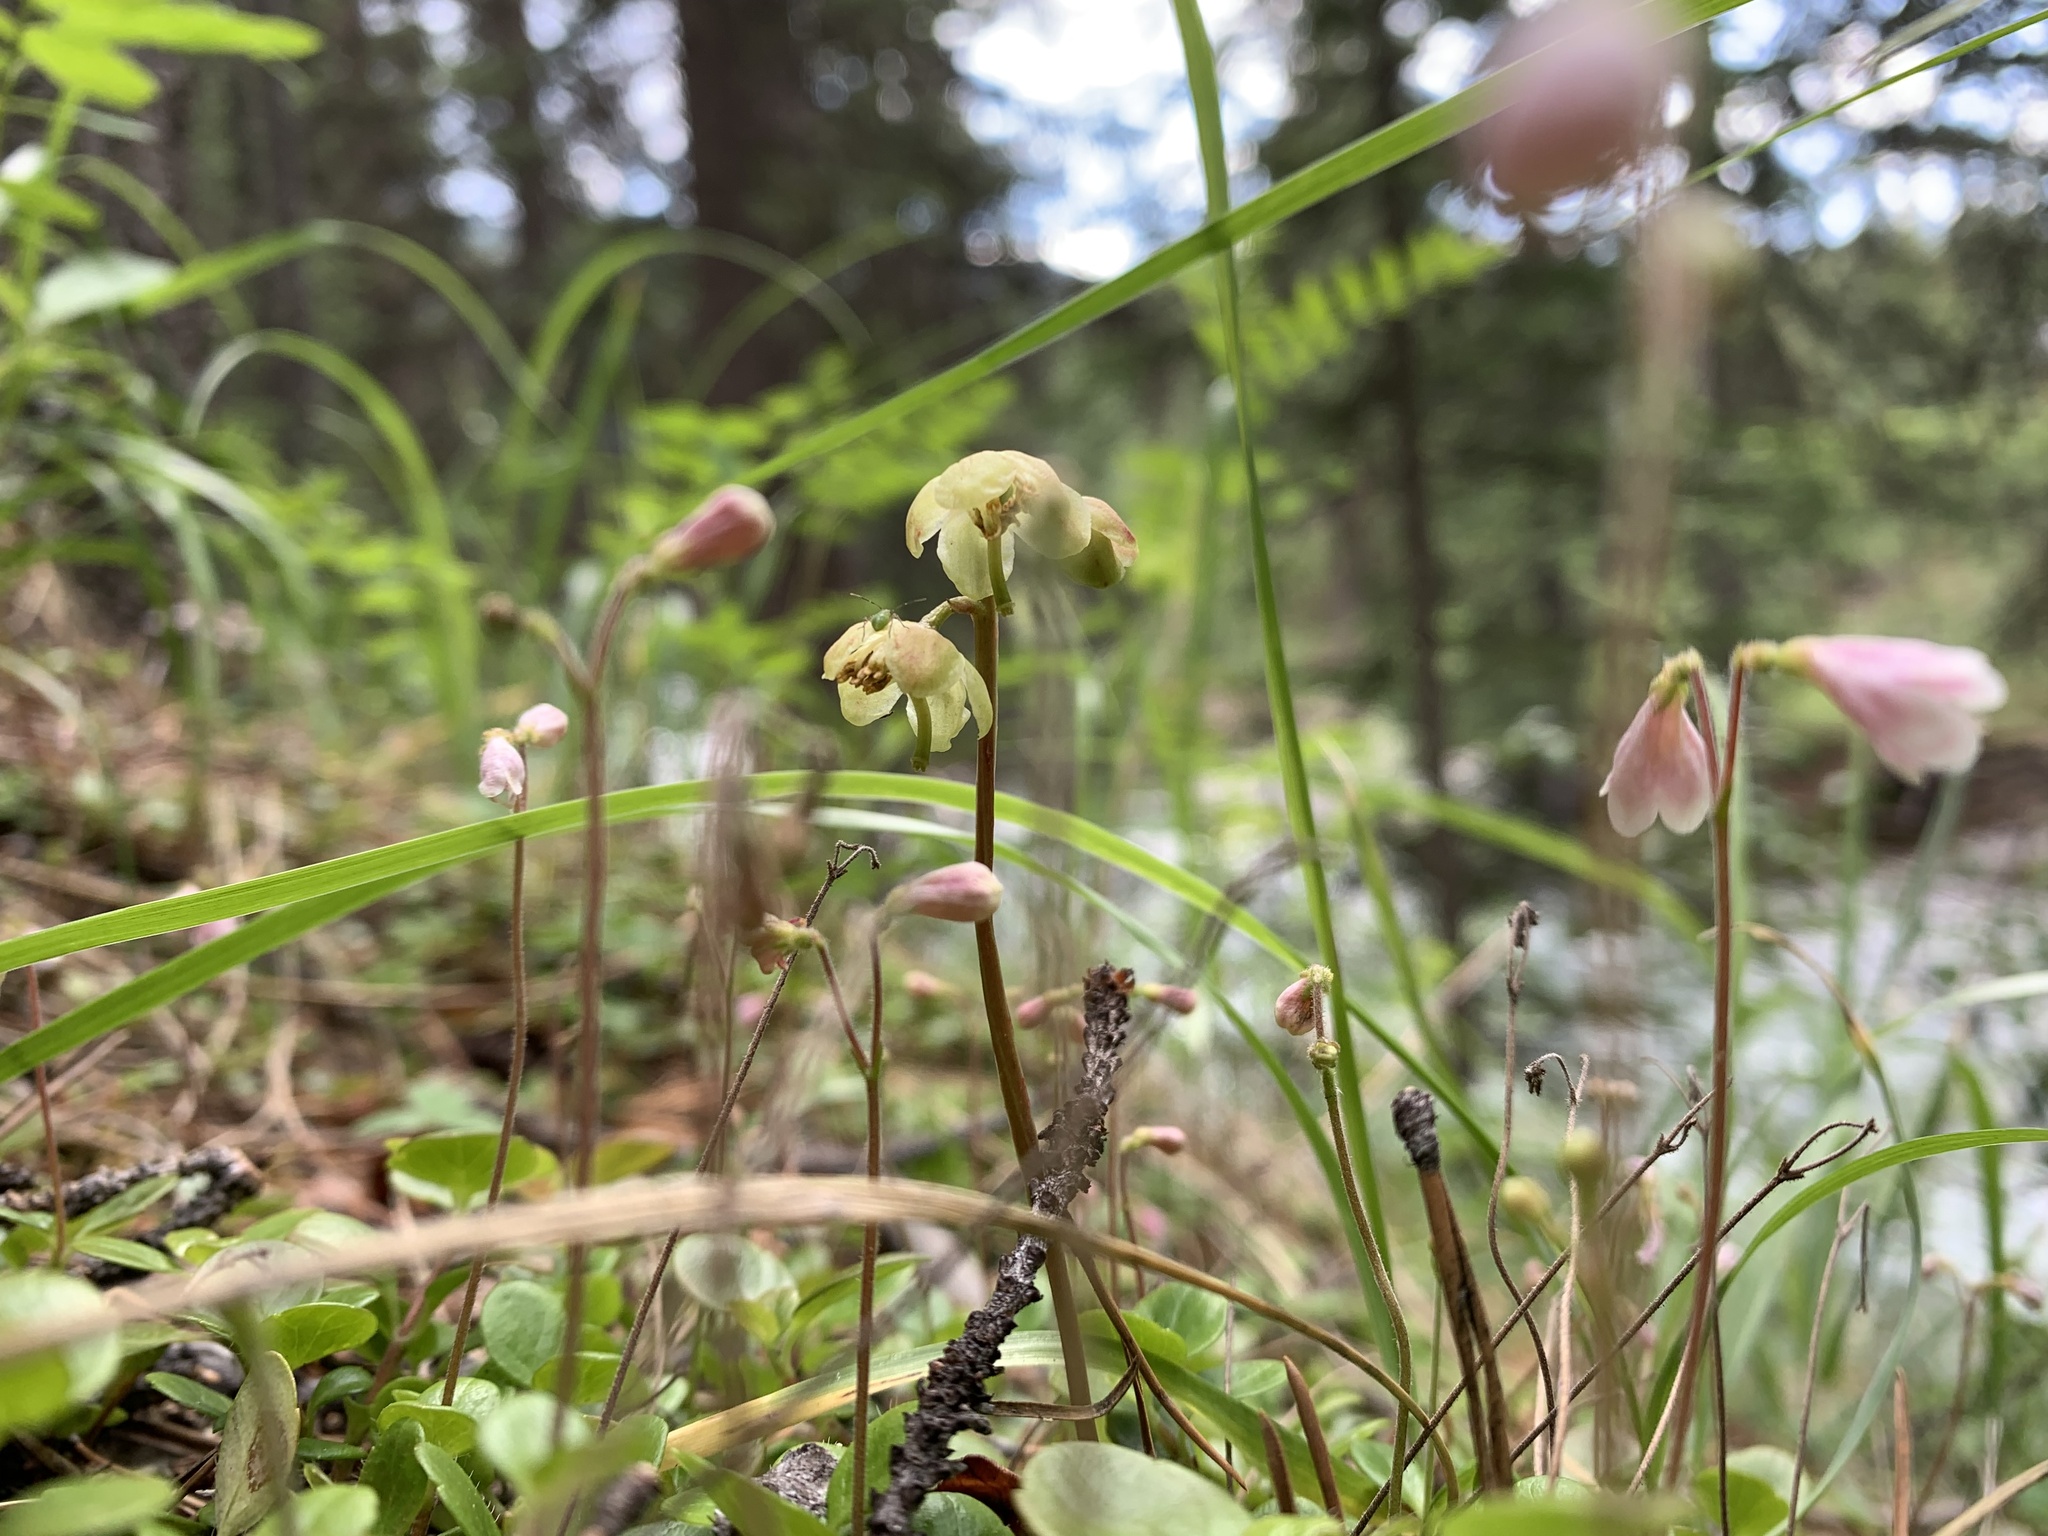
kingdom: Plantae
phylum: Tracheophyta
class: Magnoliopsida
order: Ericales
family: Ericaceae
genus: Pyrola
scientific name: Pyrola chlorantha
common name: Green wintergreen
